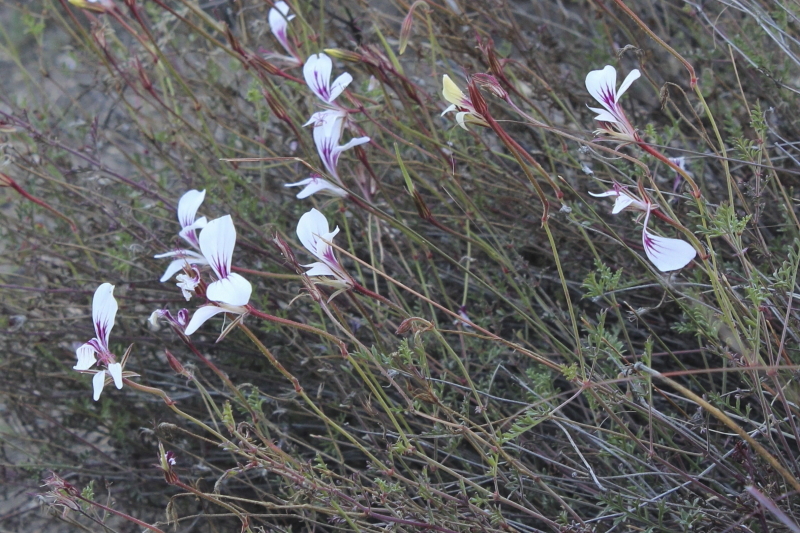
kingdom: Plantae
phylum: Tracheophyta
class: Magnoliopsida
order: Geraniales
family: Geraniaceae
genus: Pelargonium
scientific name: Pelargonium caucalifolium
